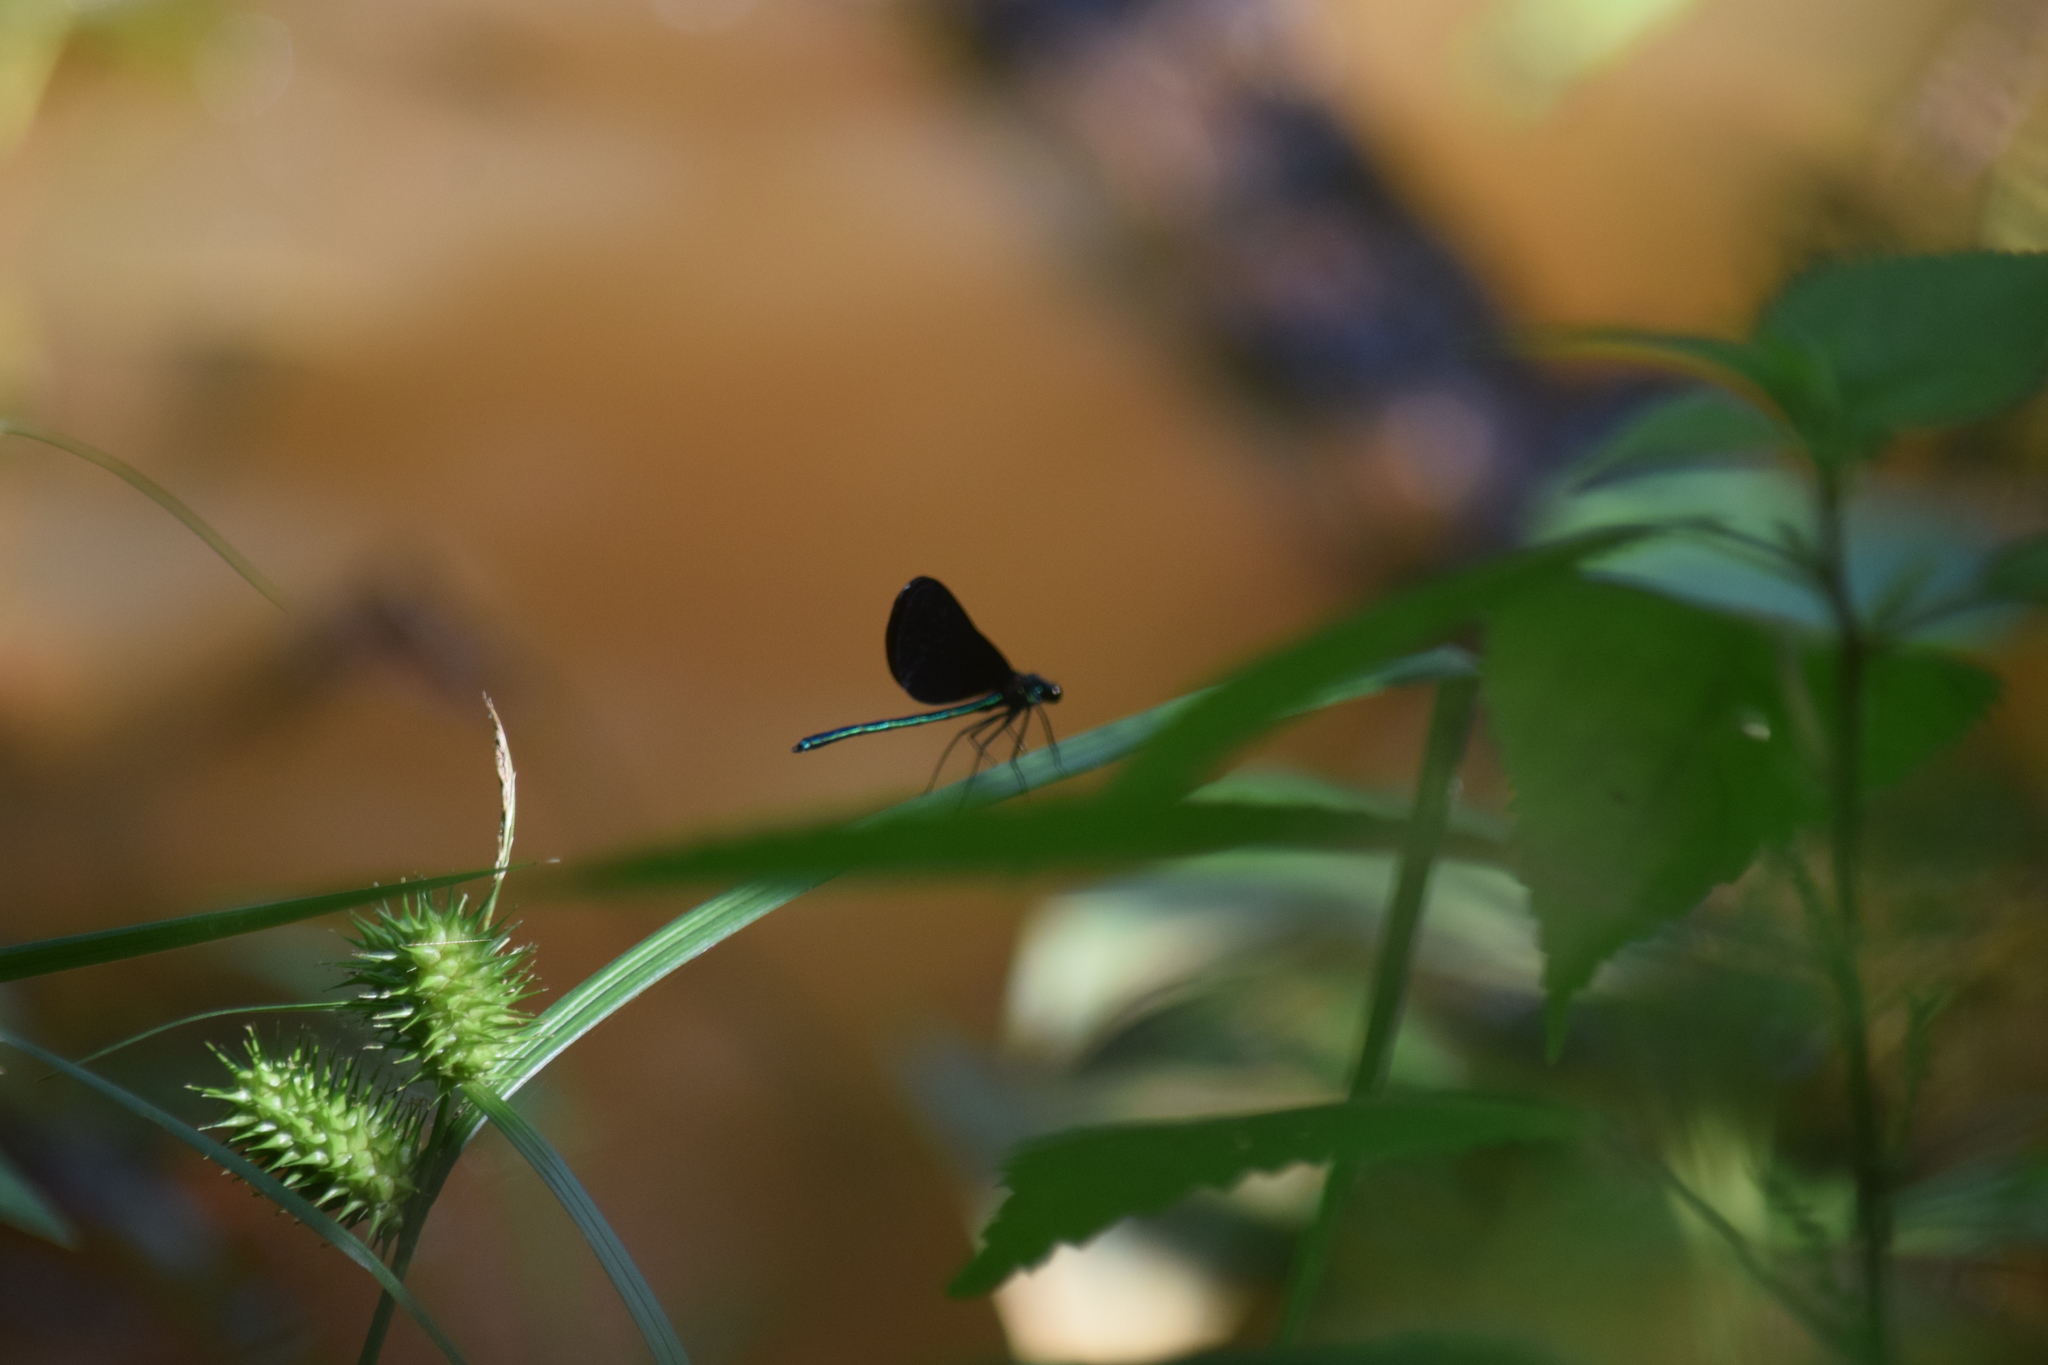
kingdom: Animalia
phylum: Arthropoda
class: Insecta
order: Odonata
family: Calopterygidae
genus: Calopteryx
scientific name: Calopteryx maculata
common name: Ebony jewelwing
